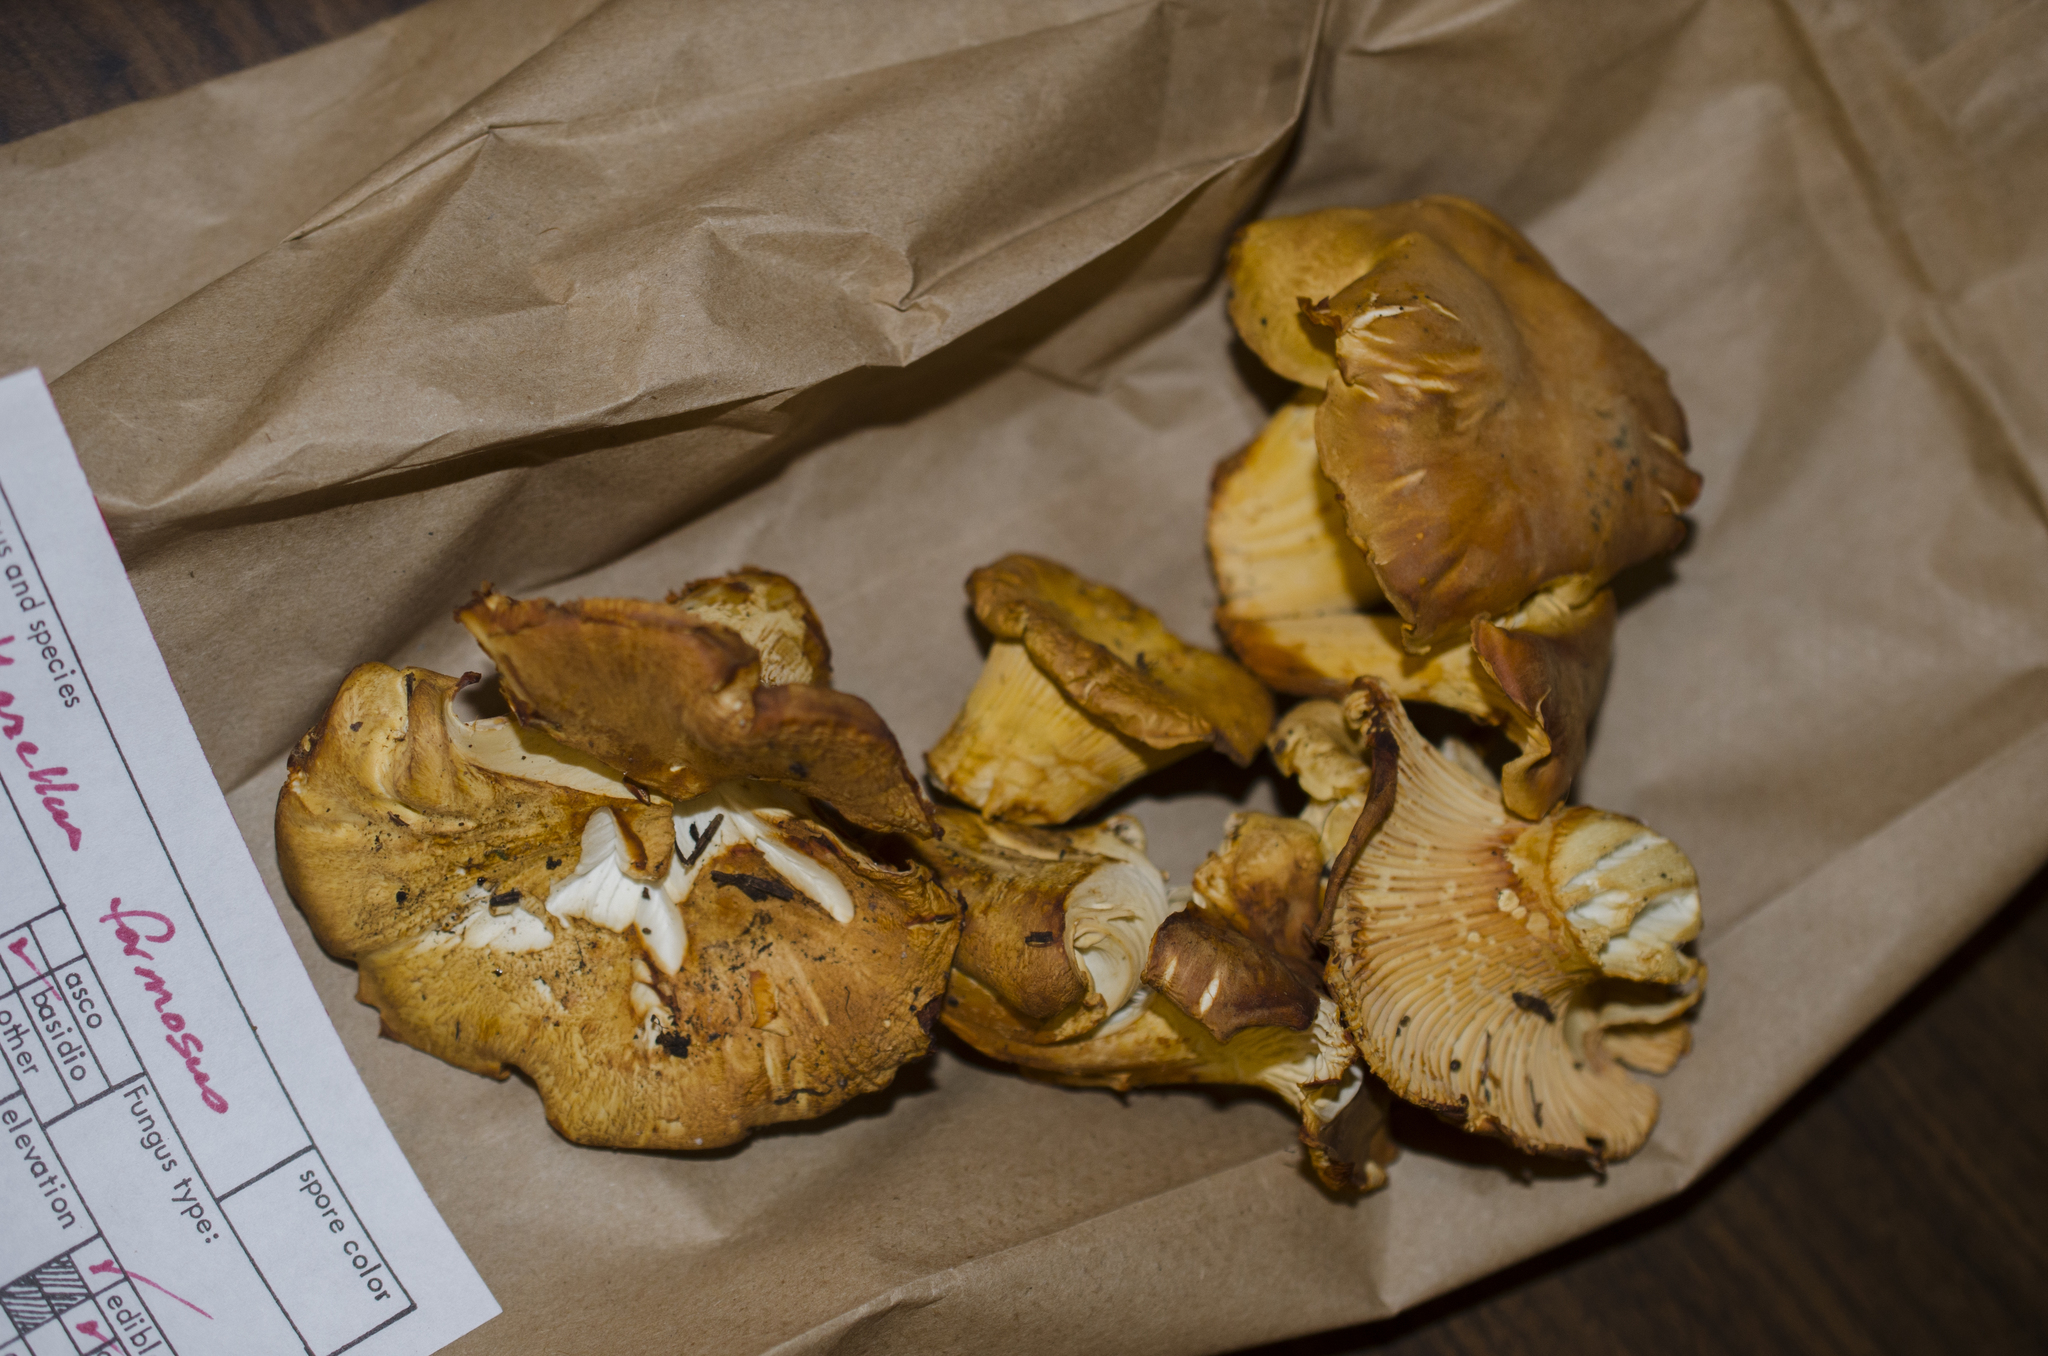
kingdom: Fungi
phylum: Basidiomycota
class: Agaricomycetes
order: Cantharellales
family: Hydnaceae
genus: Cantharellus
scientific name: Cantharellus formosus
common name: Pacific golden chanterelle
